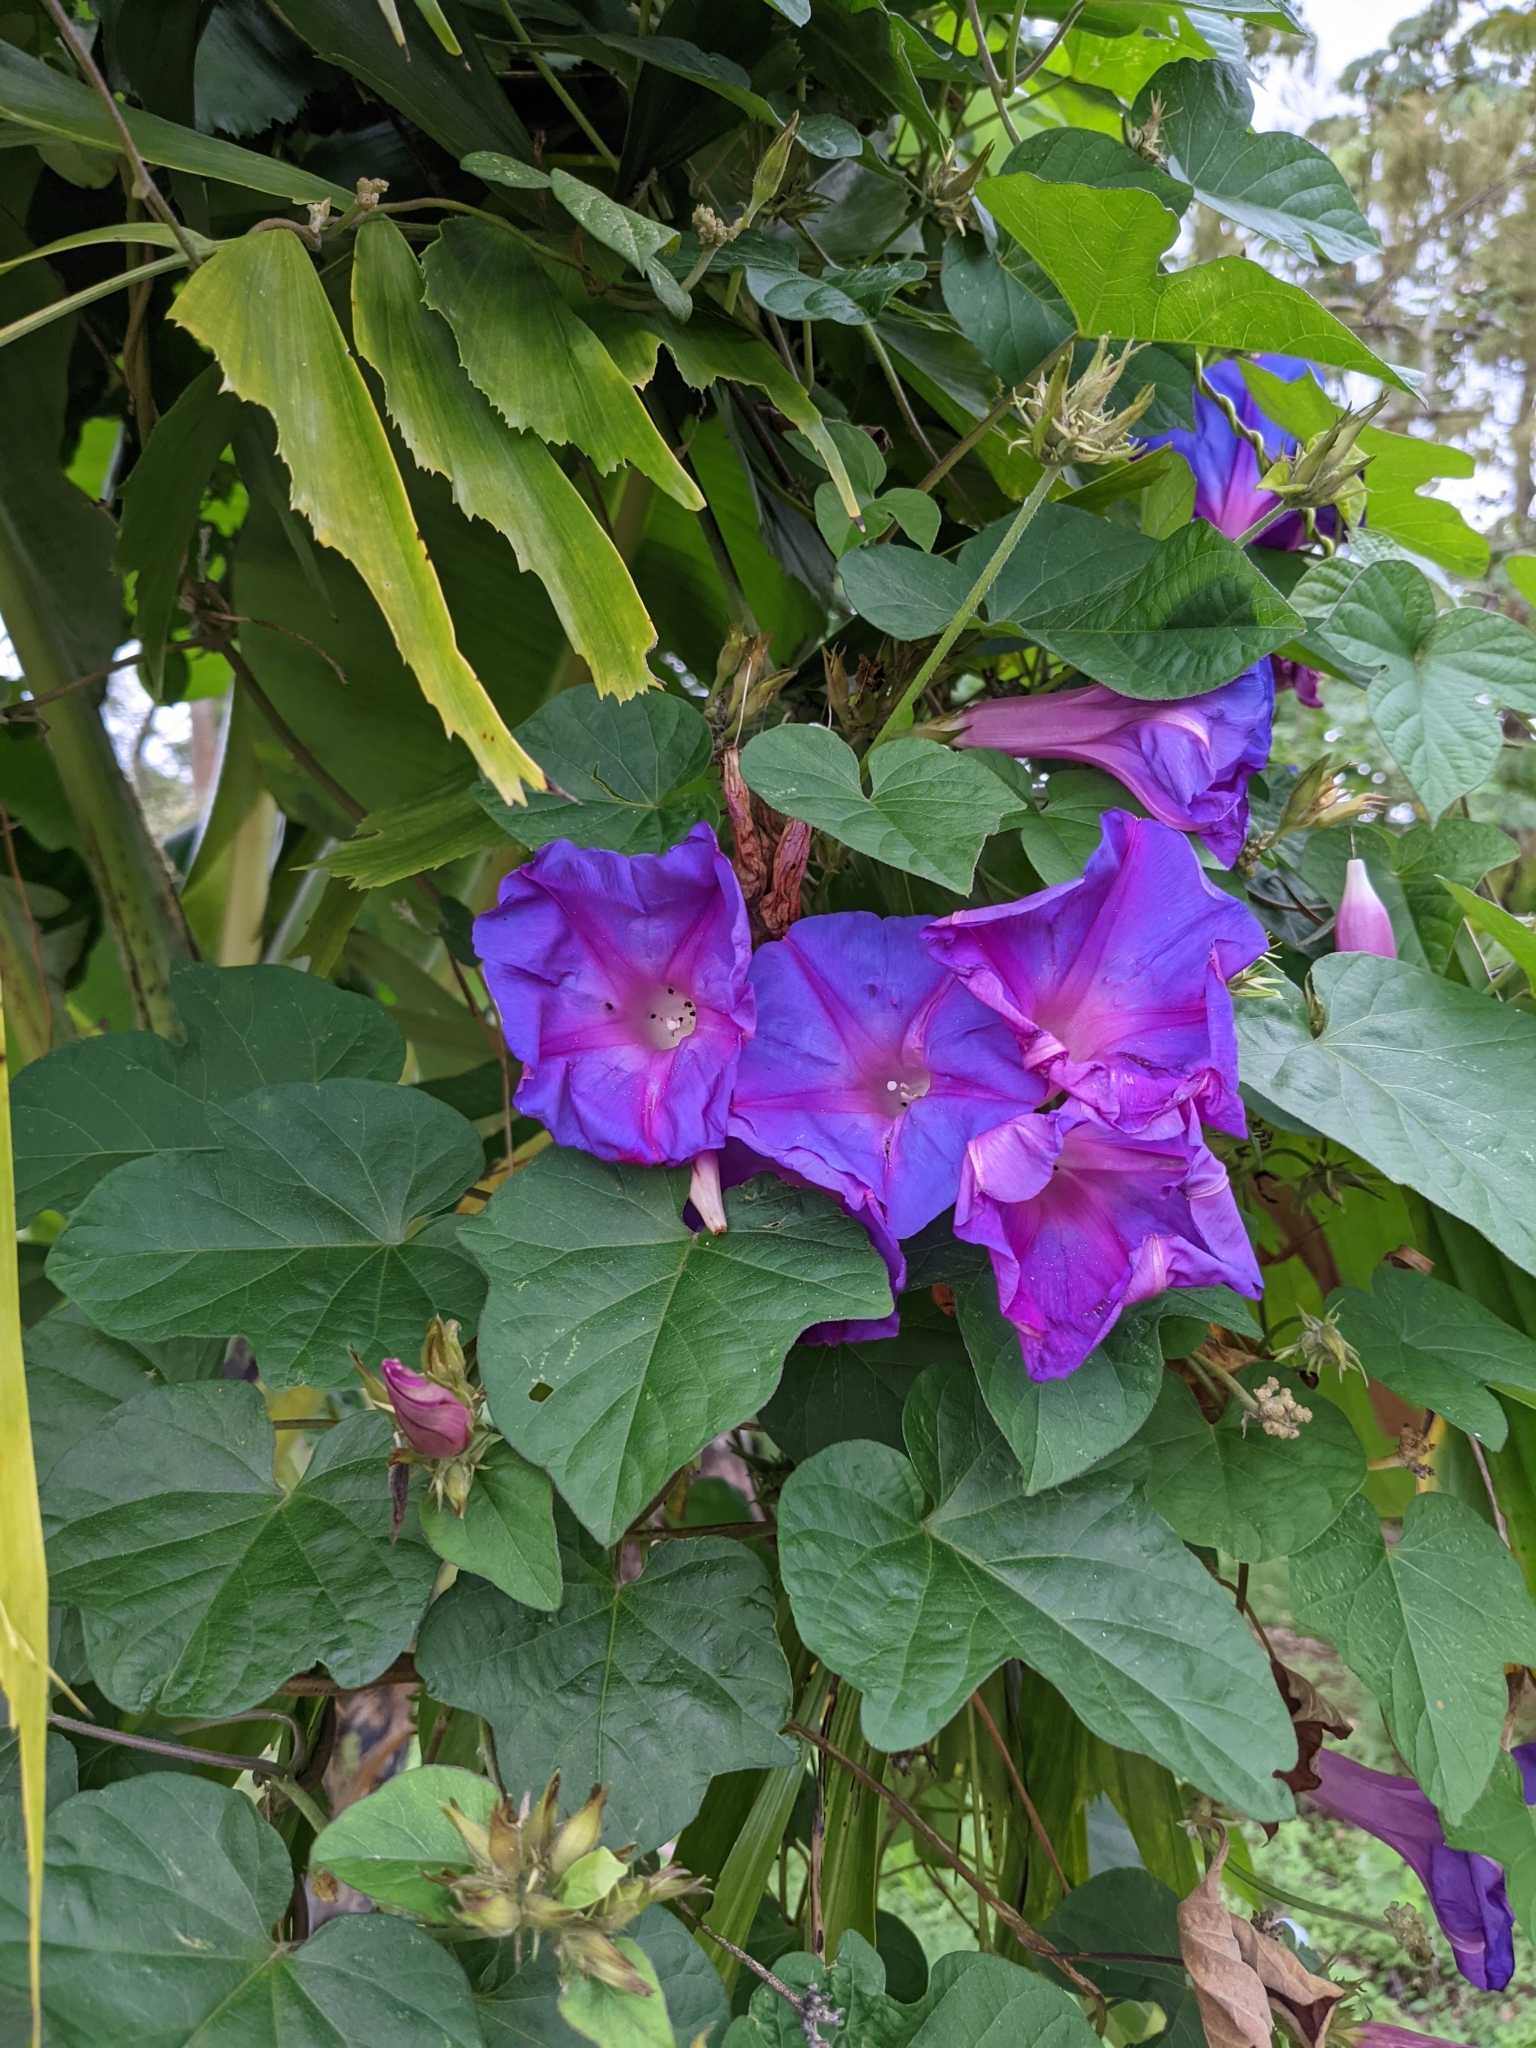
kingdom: Plantae
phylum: Tracheophyta
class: Magnoliopsida
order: Solanales
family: Convolvulaceae
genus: Ipomoea
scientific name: Ipomoea indica
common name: Blue dawnflower
